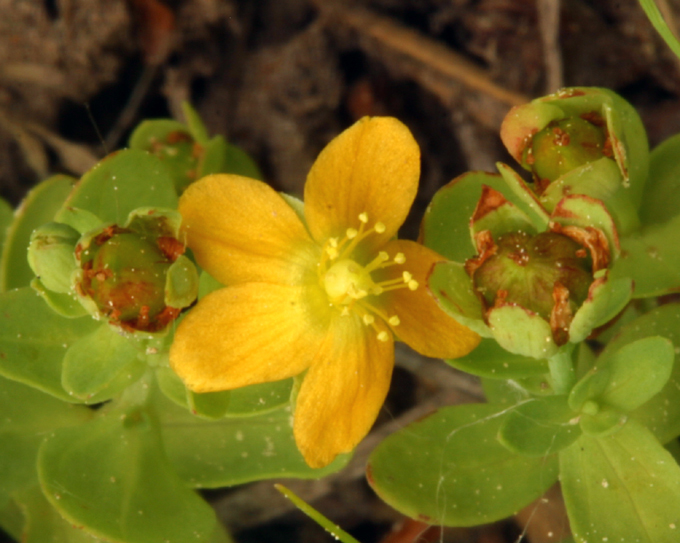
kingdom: Plantae
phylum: Tracheophyta
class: Magnoliopsida
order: Malpighiales
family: Hypericaceae
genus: Hypericum
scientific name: Hypericum anagalloides
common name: Bog st. john's-wort
